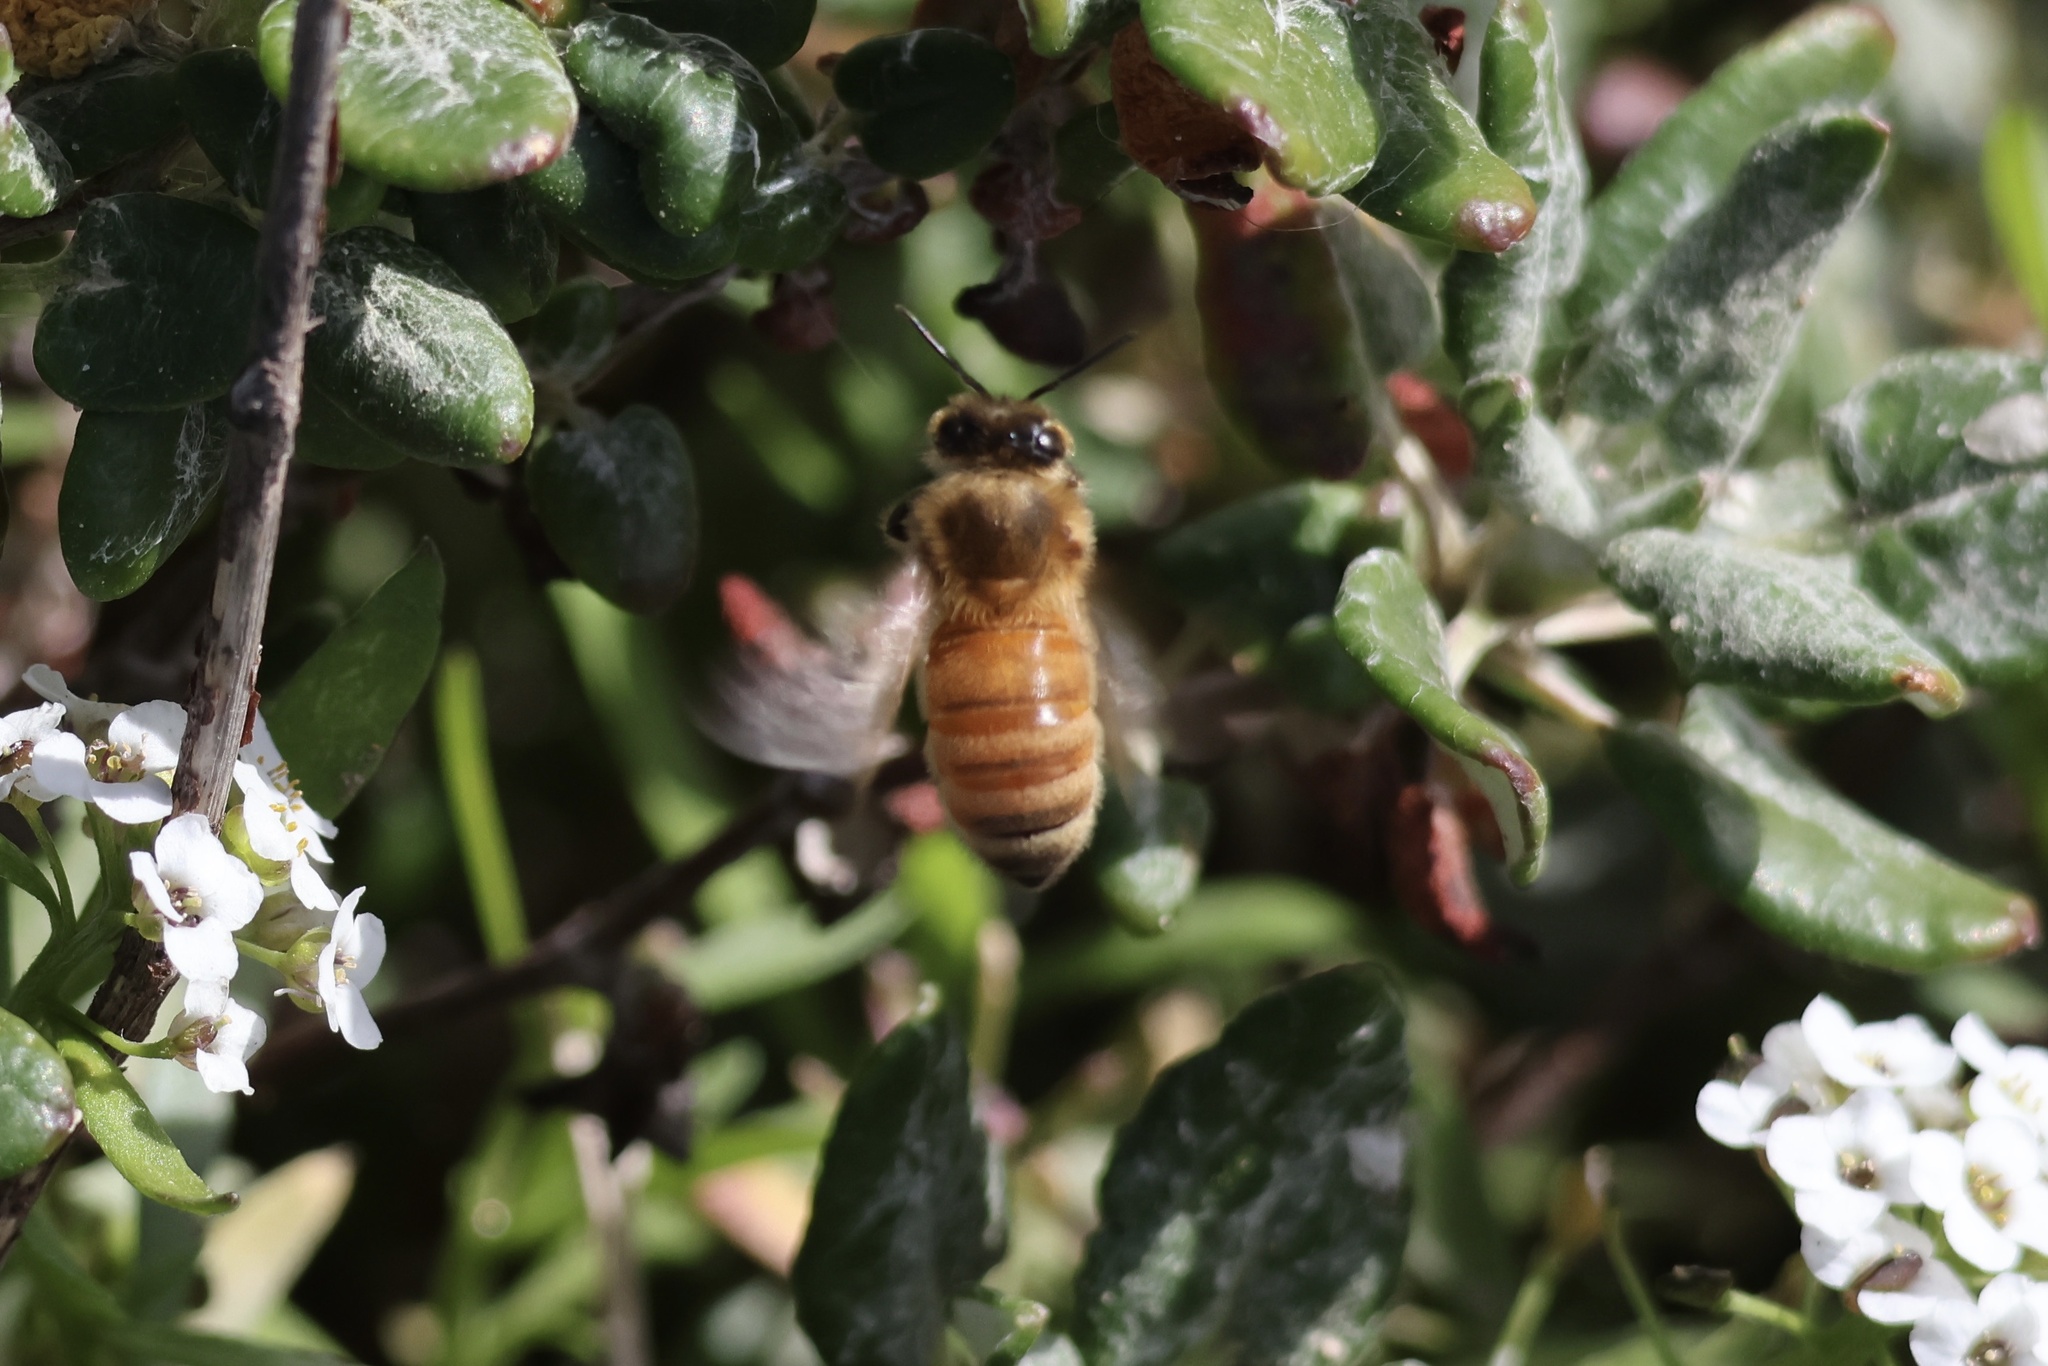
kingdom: Animalia
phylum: Arthropoda
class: Insecta
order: Hymenoptera
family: Apidae
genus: Apis
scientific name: Apis mellifera
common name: Honey bee
